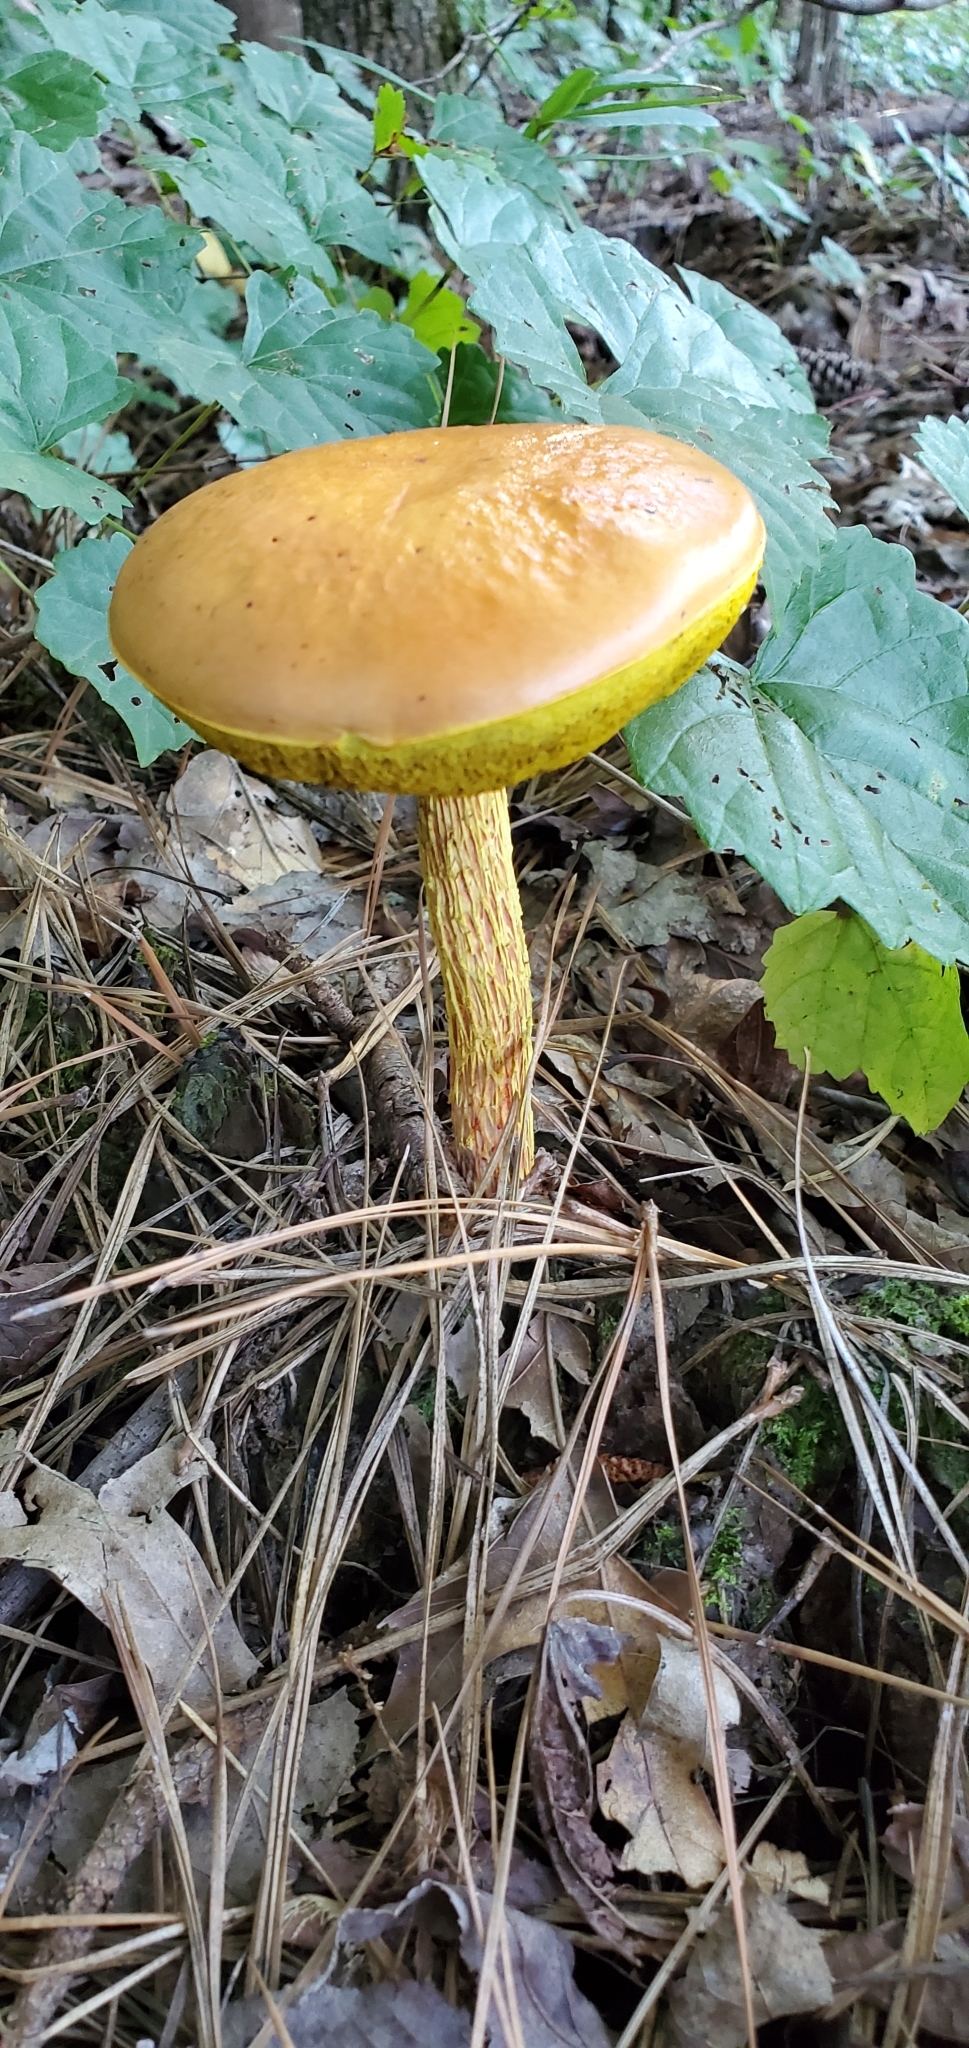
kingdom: Fungi
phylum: Basidiomycota
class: Agaricomycetes
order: Boletales
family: Boletaceae
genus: Aureoboletus
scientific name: Aureoboletus betula
